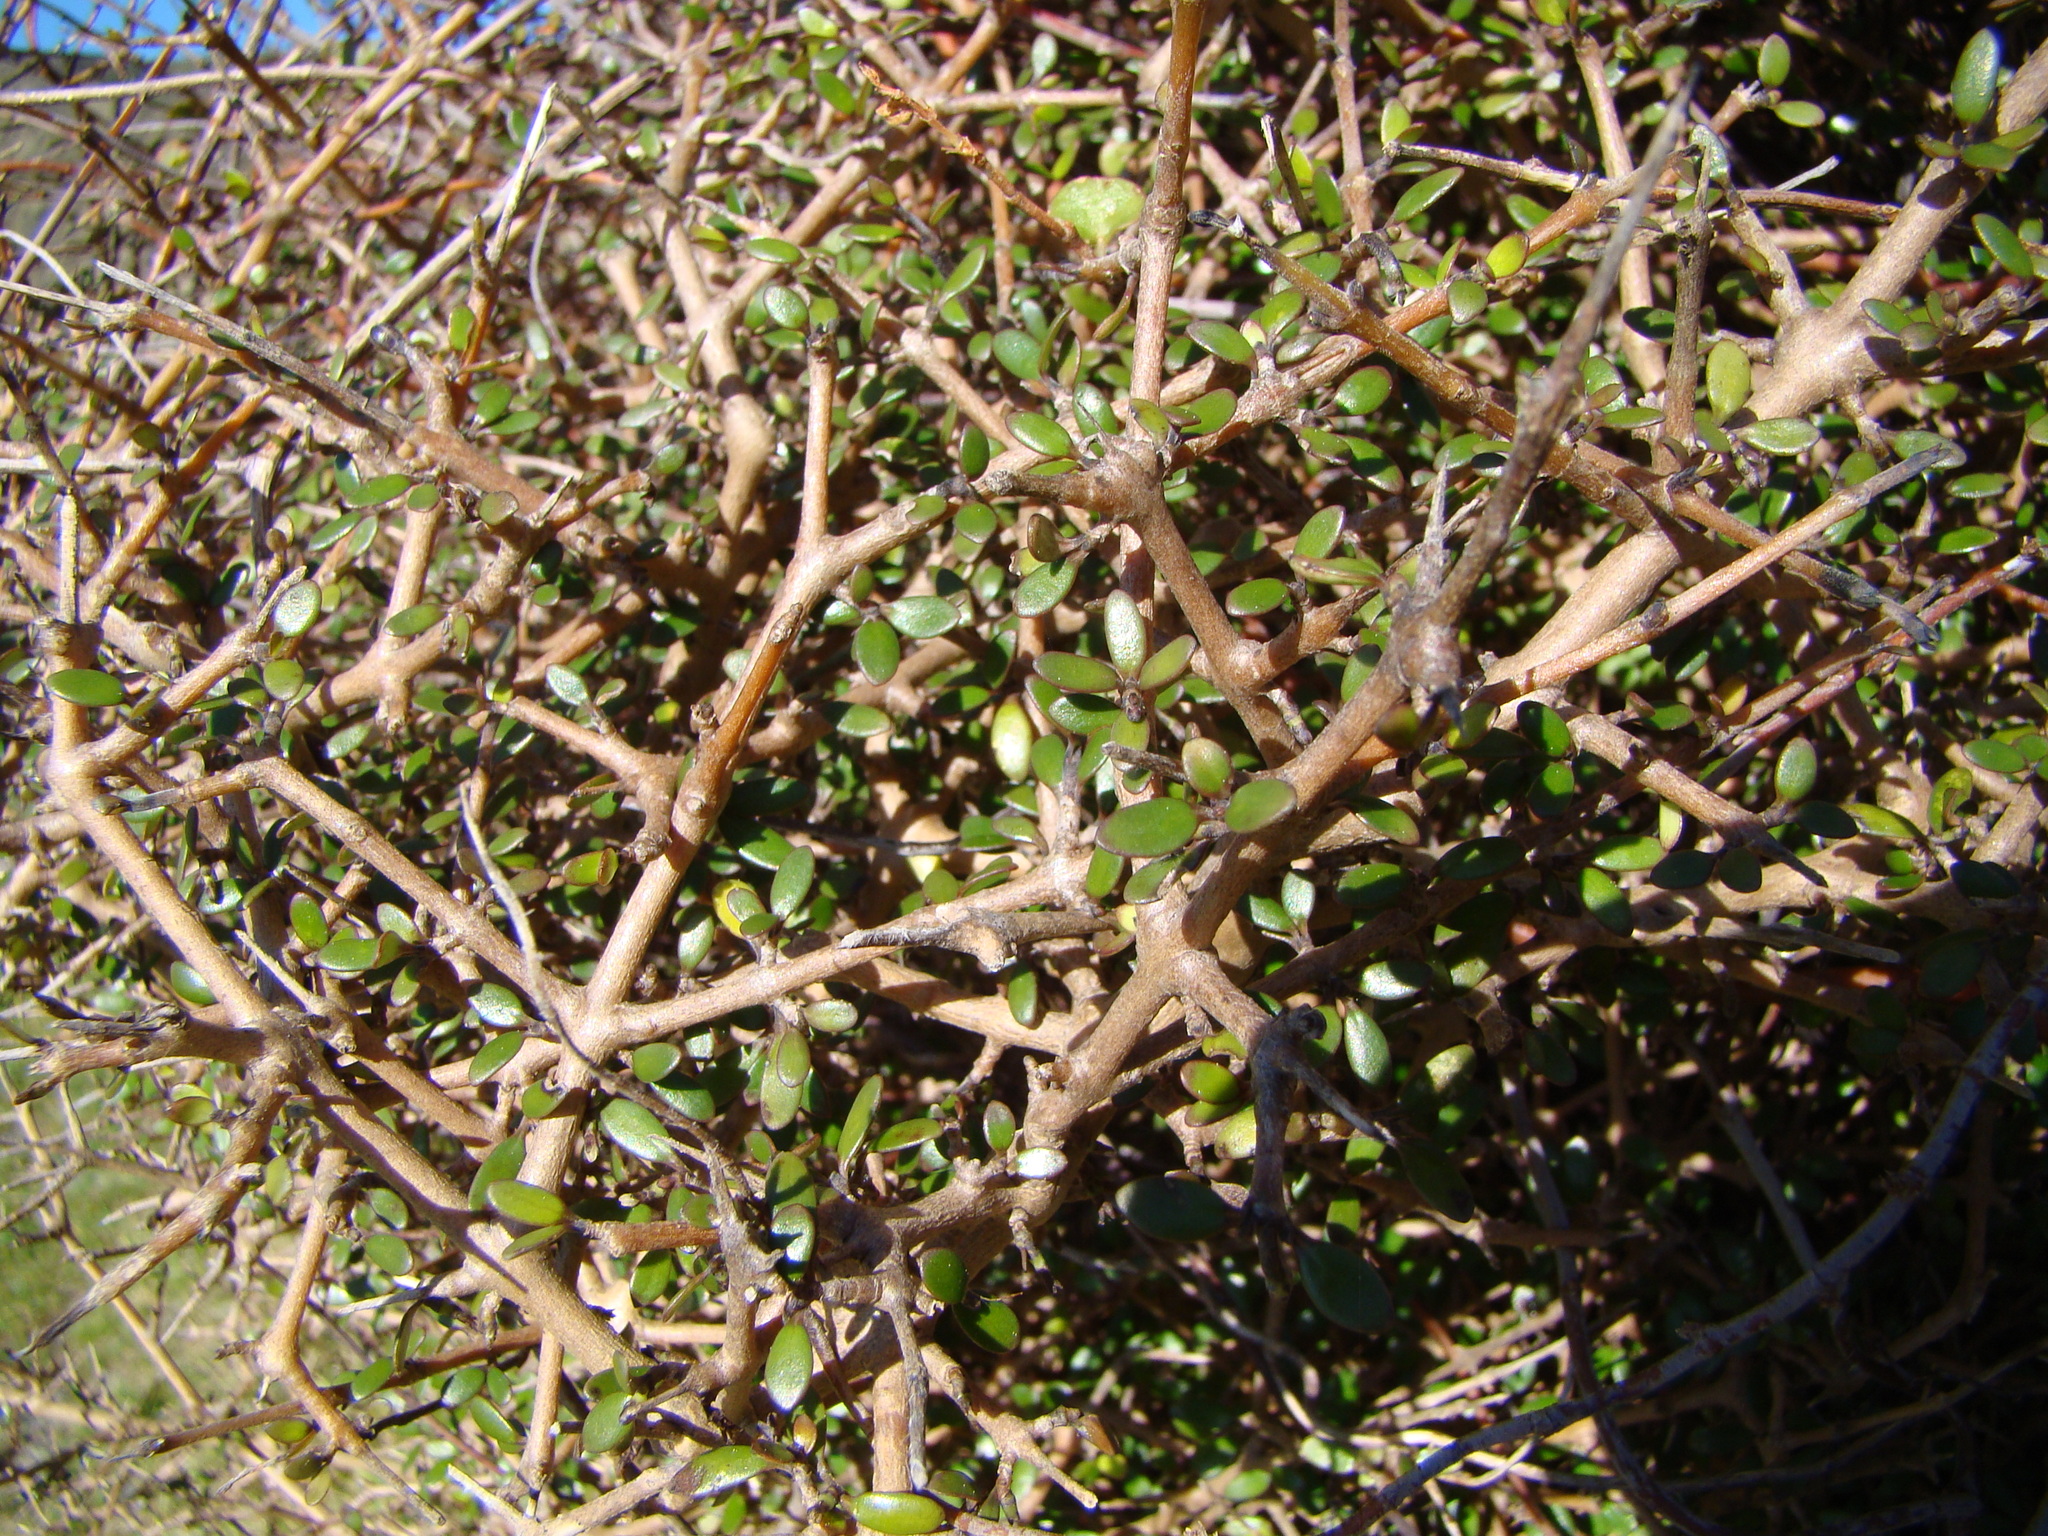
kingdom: Plantae
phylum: Tracheophyta
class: Magnoliopsida
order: Gentianales
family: Rubiaceae
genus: Coprosma
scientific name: Coprosma propinqua
